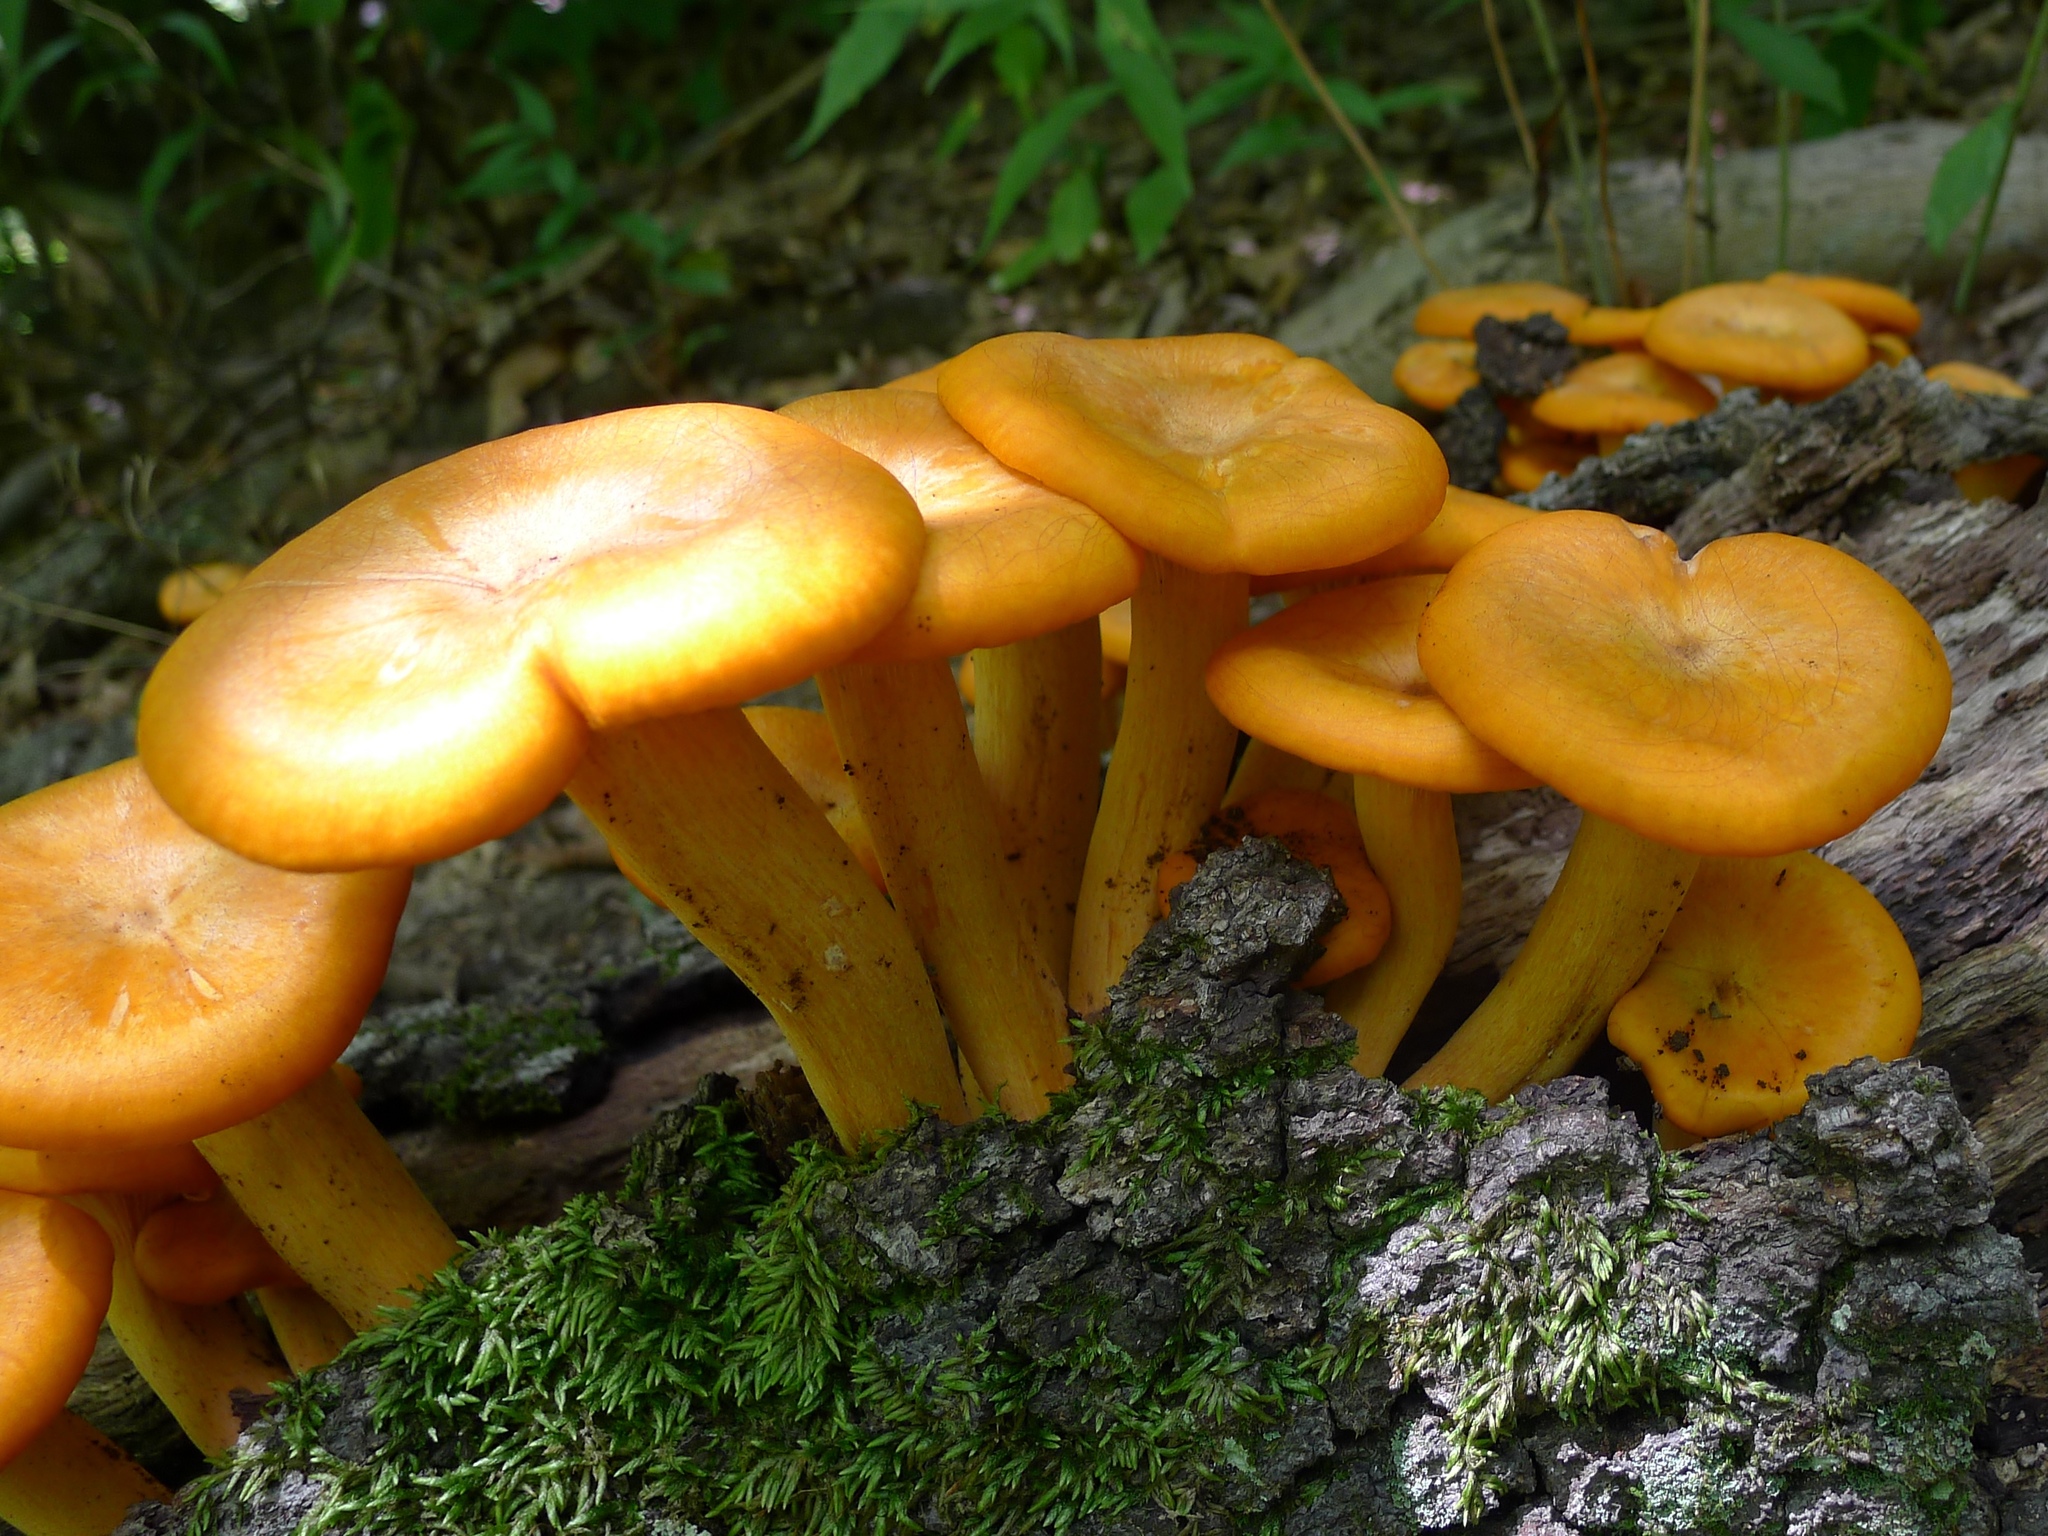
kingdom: Fungi
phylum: Basidiomycota
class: Agaricomycetes
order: Agaricales
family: Omphalotaceae
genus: Omphalotus
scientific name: Omphalotus illudens
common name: Jack o lantern
